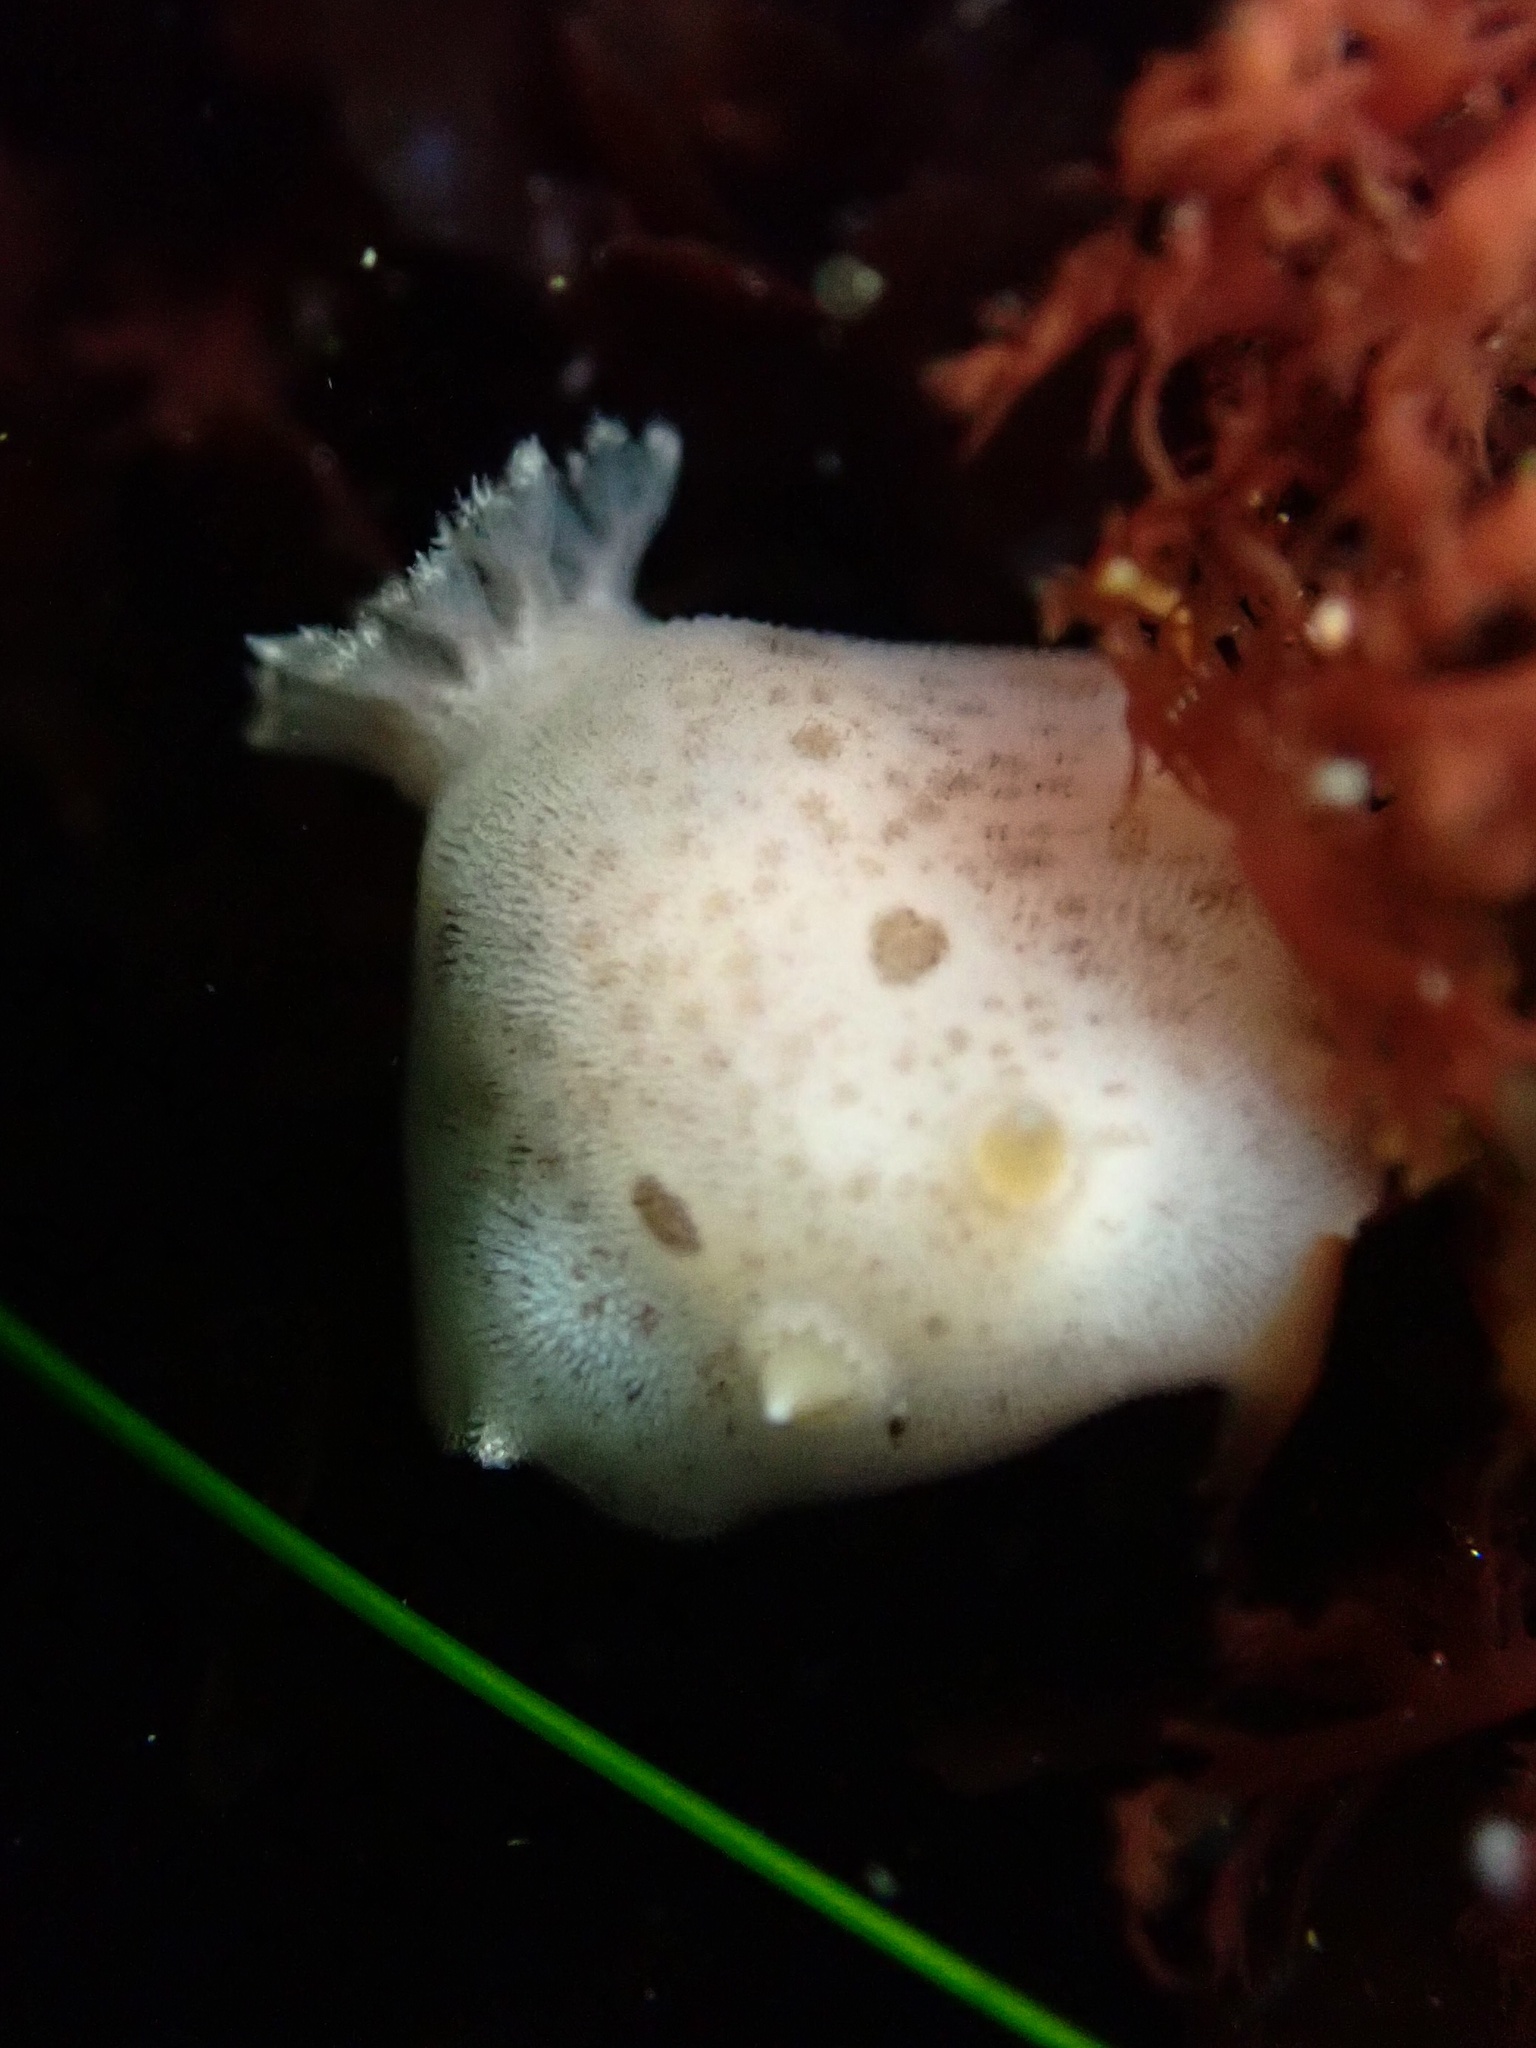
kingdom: Animalia
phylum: Mollusca
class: Gastropoda
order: Nudibranchia
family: Discodorididae
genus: Diaulula
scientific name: Diaulula sandiegensis
